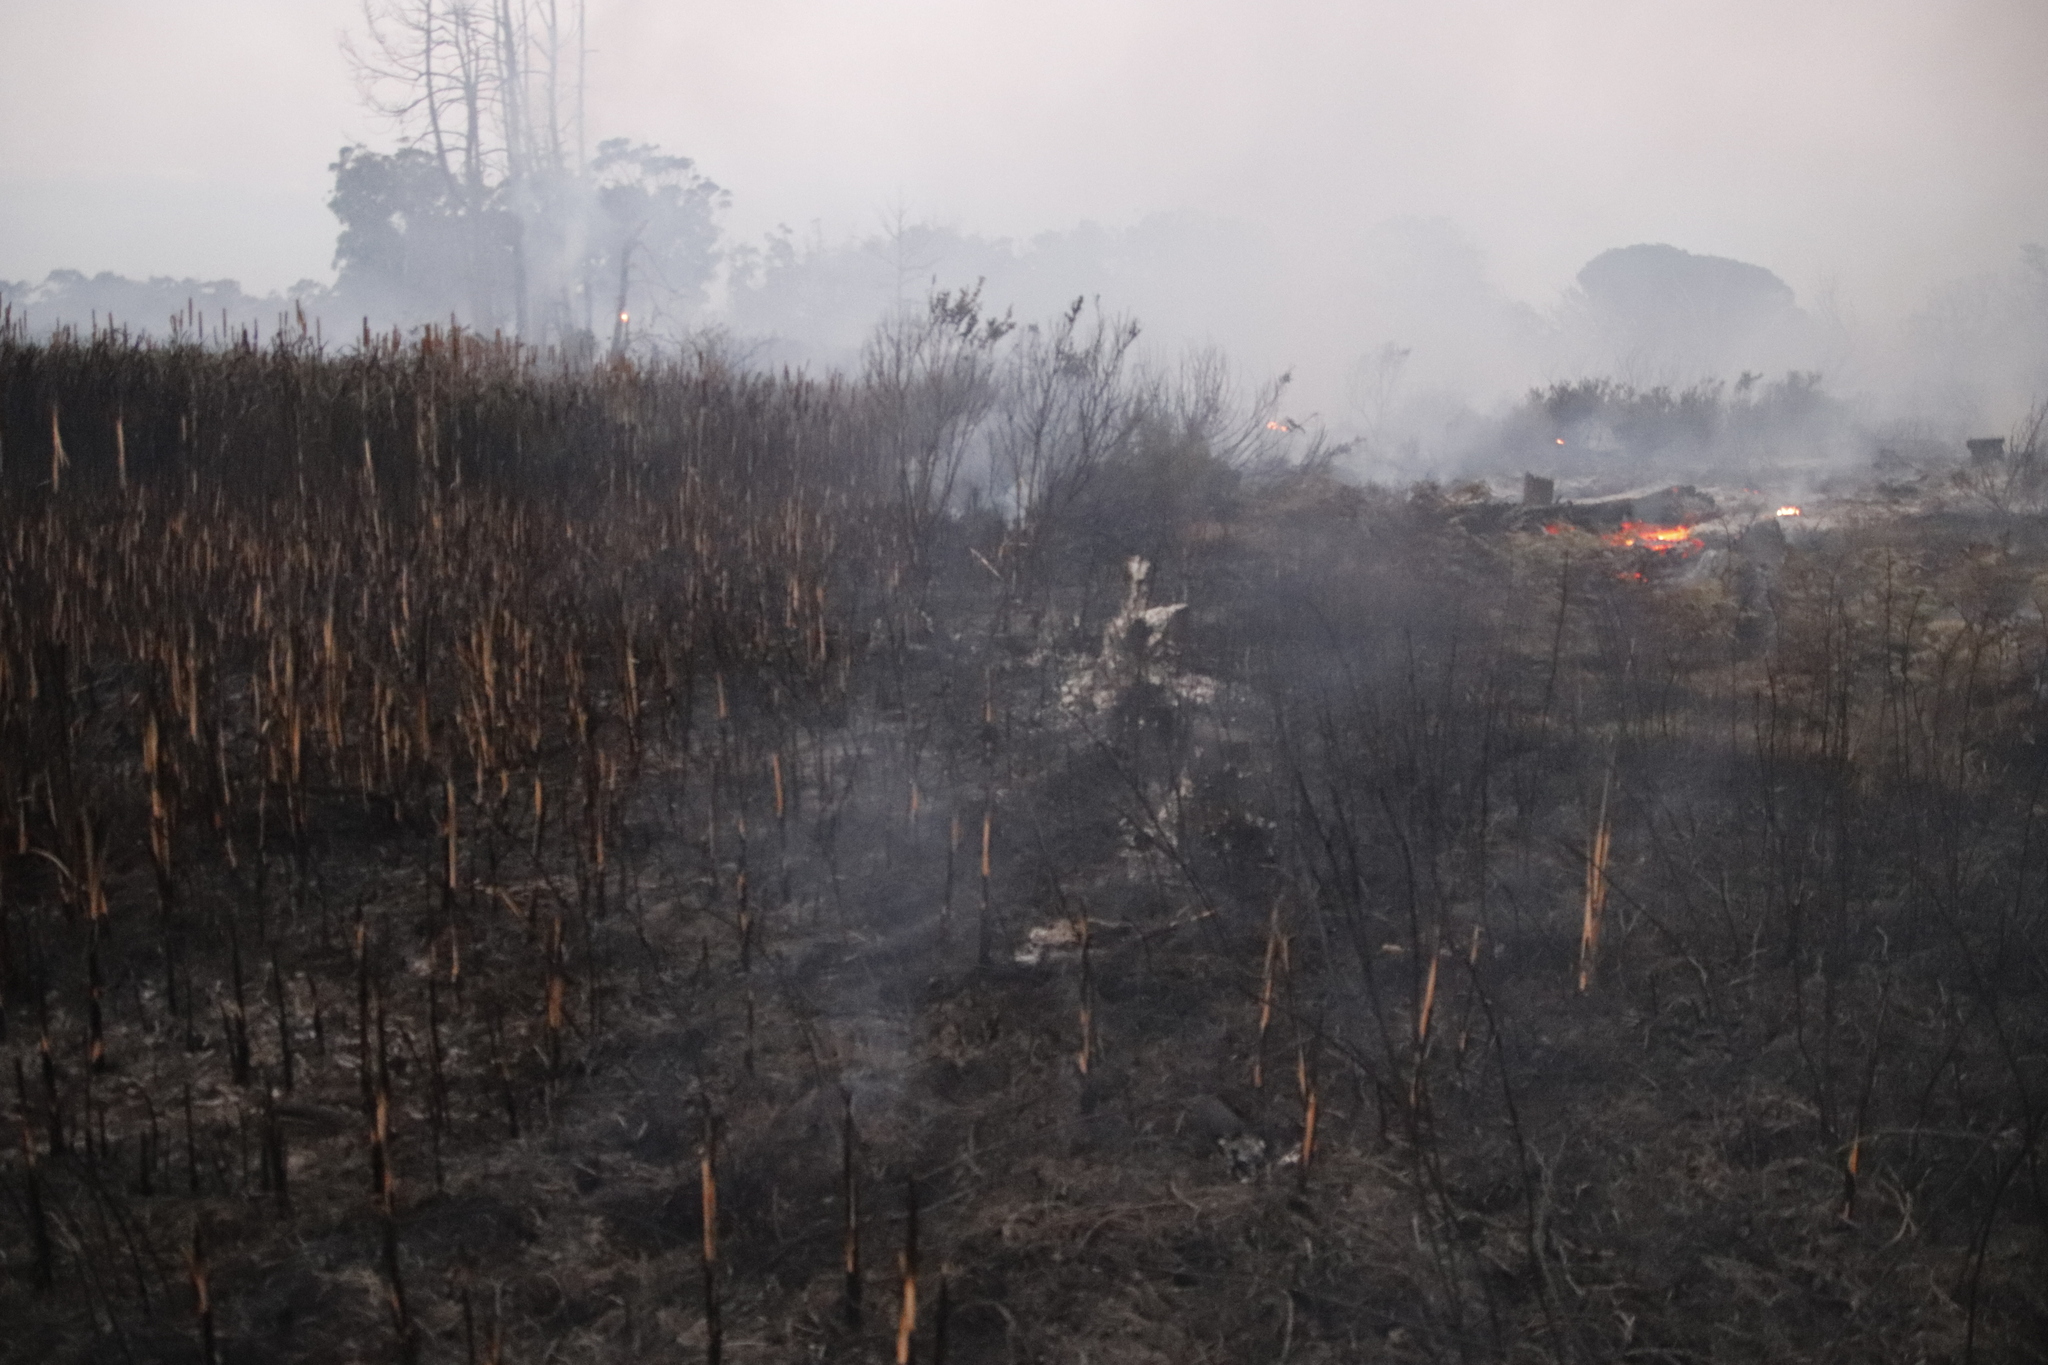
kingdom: Plantae
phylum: Tracheophyta
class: Liliopsida
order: Poales
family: Typhaceae
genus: Typha
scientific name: Typha capensis
